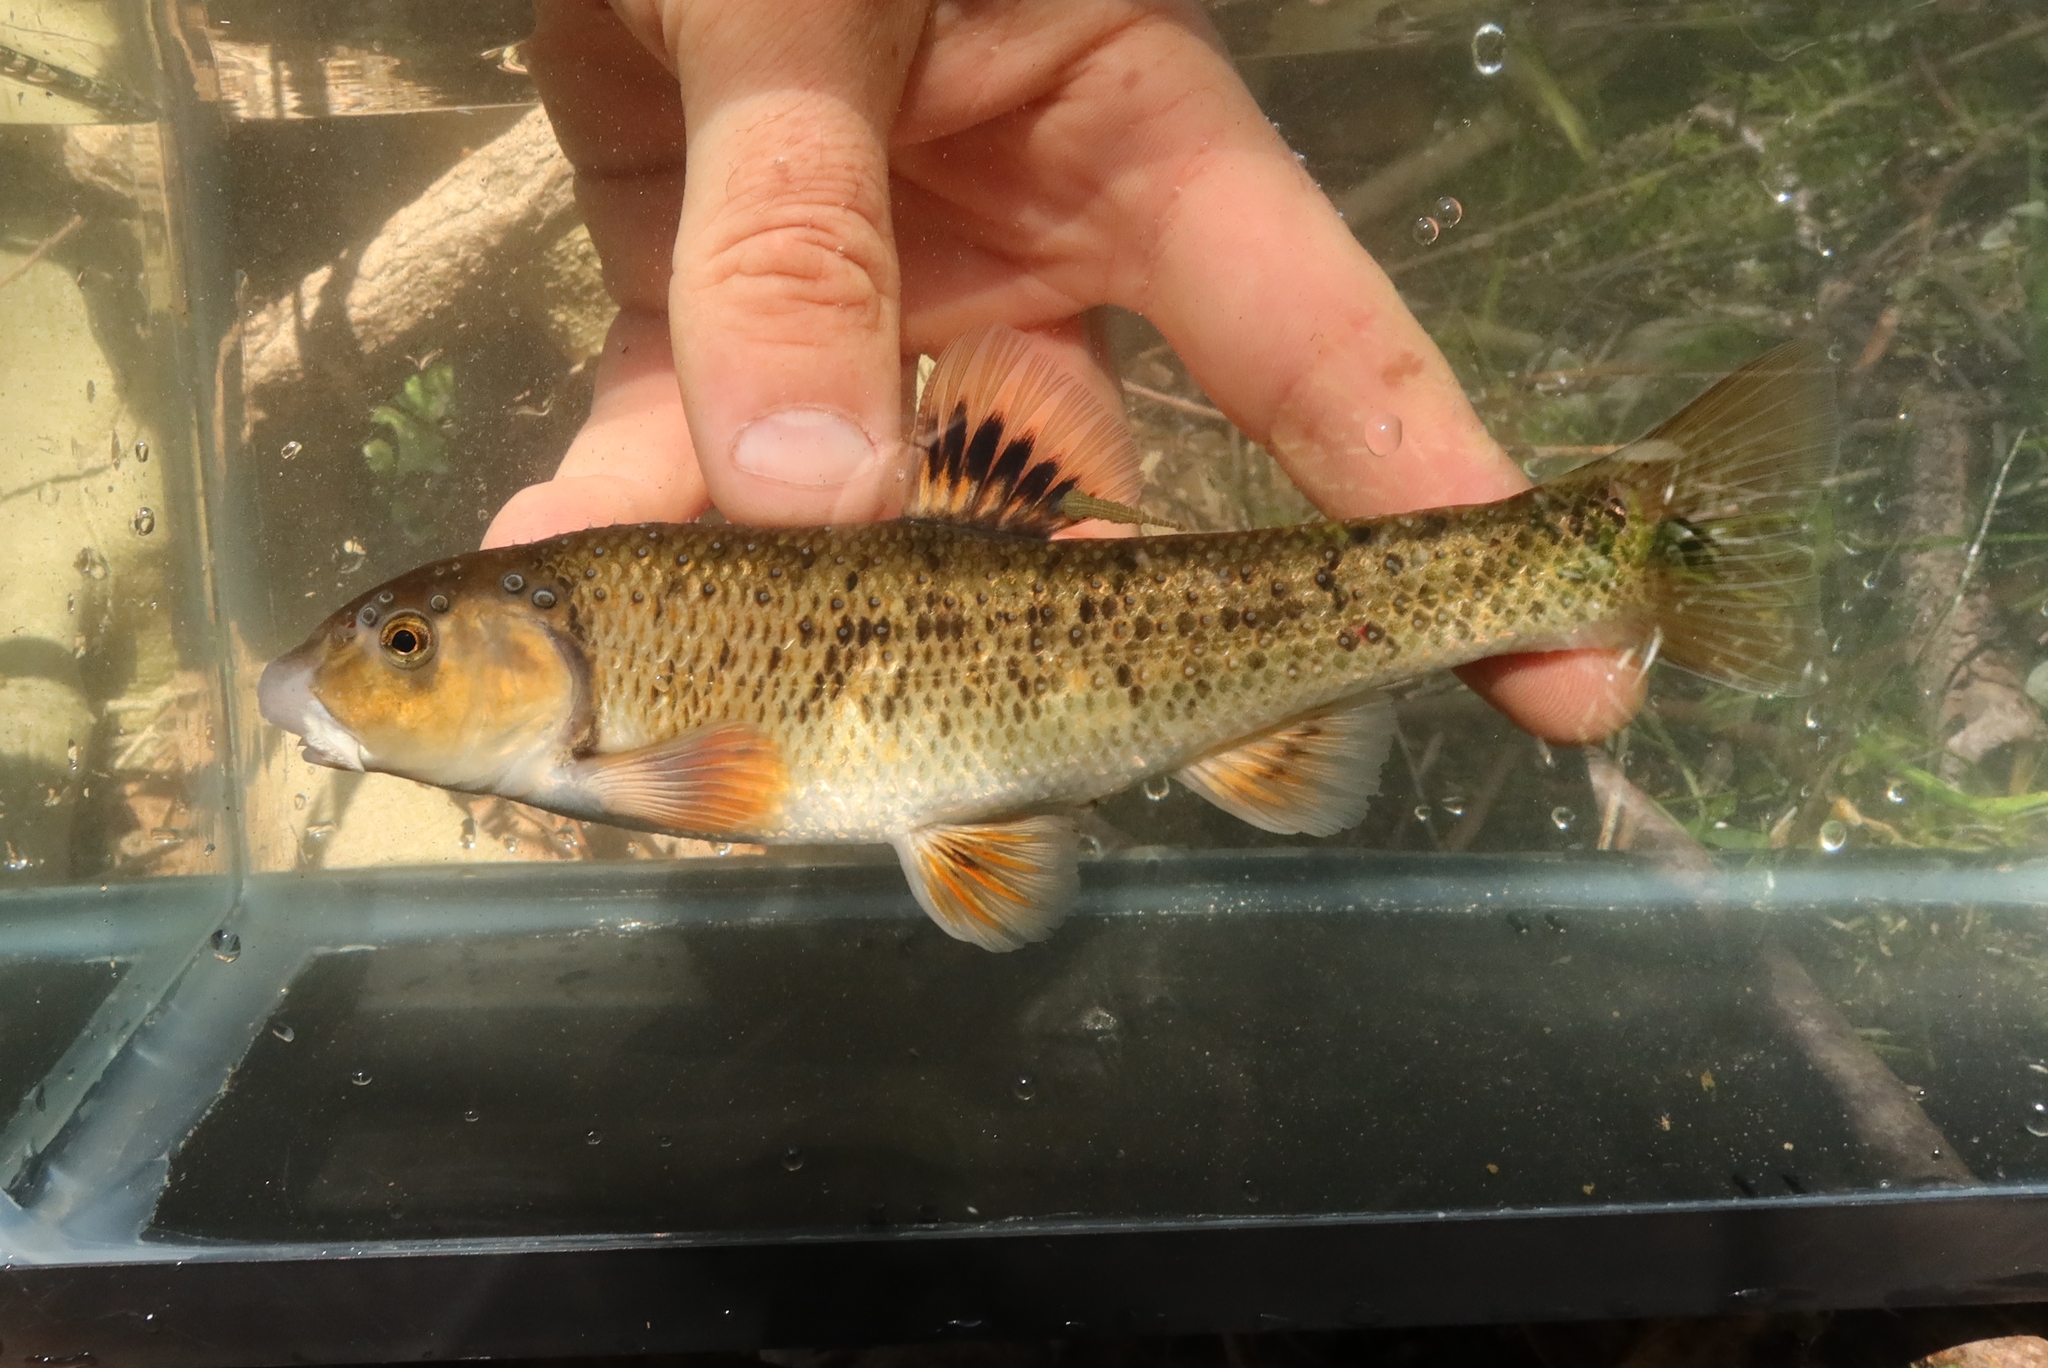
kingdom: Animalia
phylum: Chordata
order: Cypriniformes
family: Cyprinidae
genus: Campostoma
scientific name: Campostoma oligolepis
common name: Largescale stoneroller
